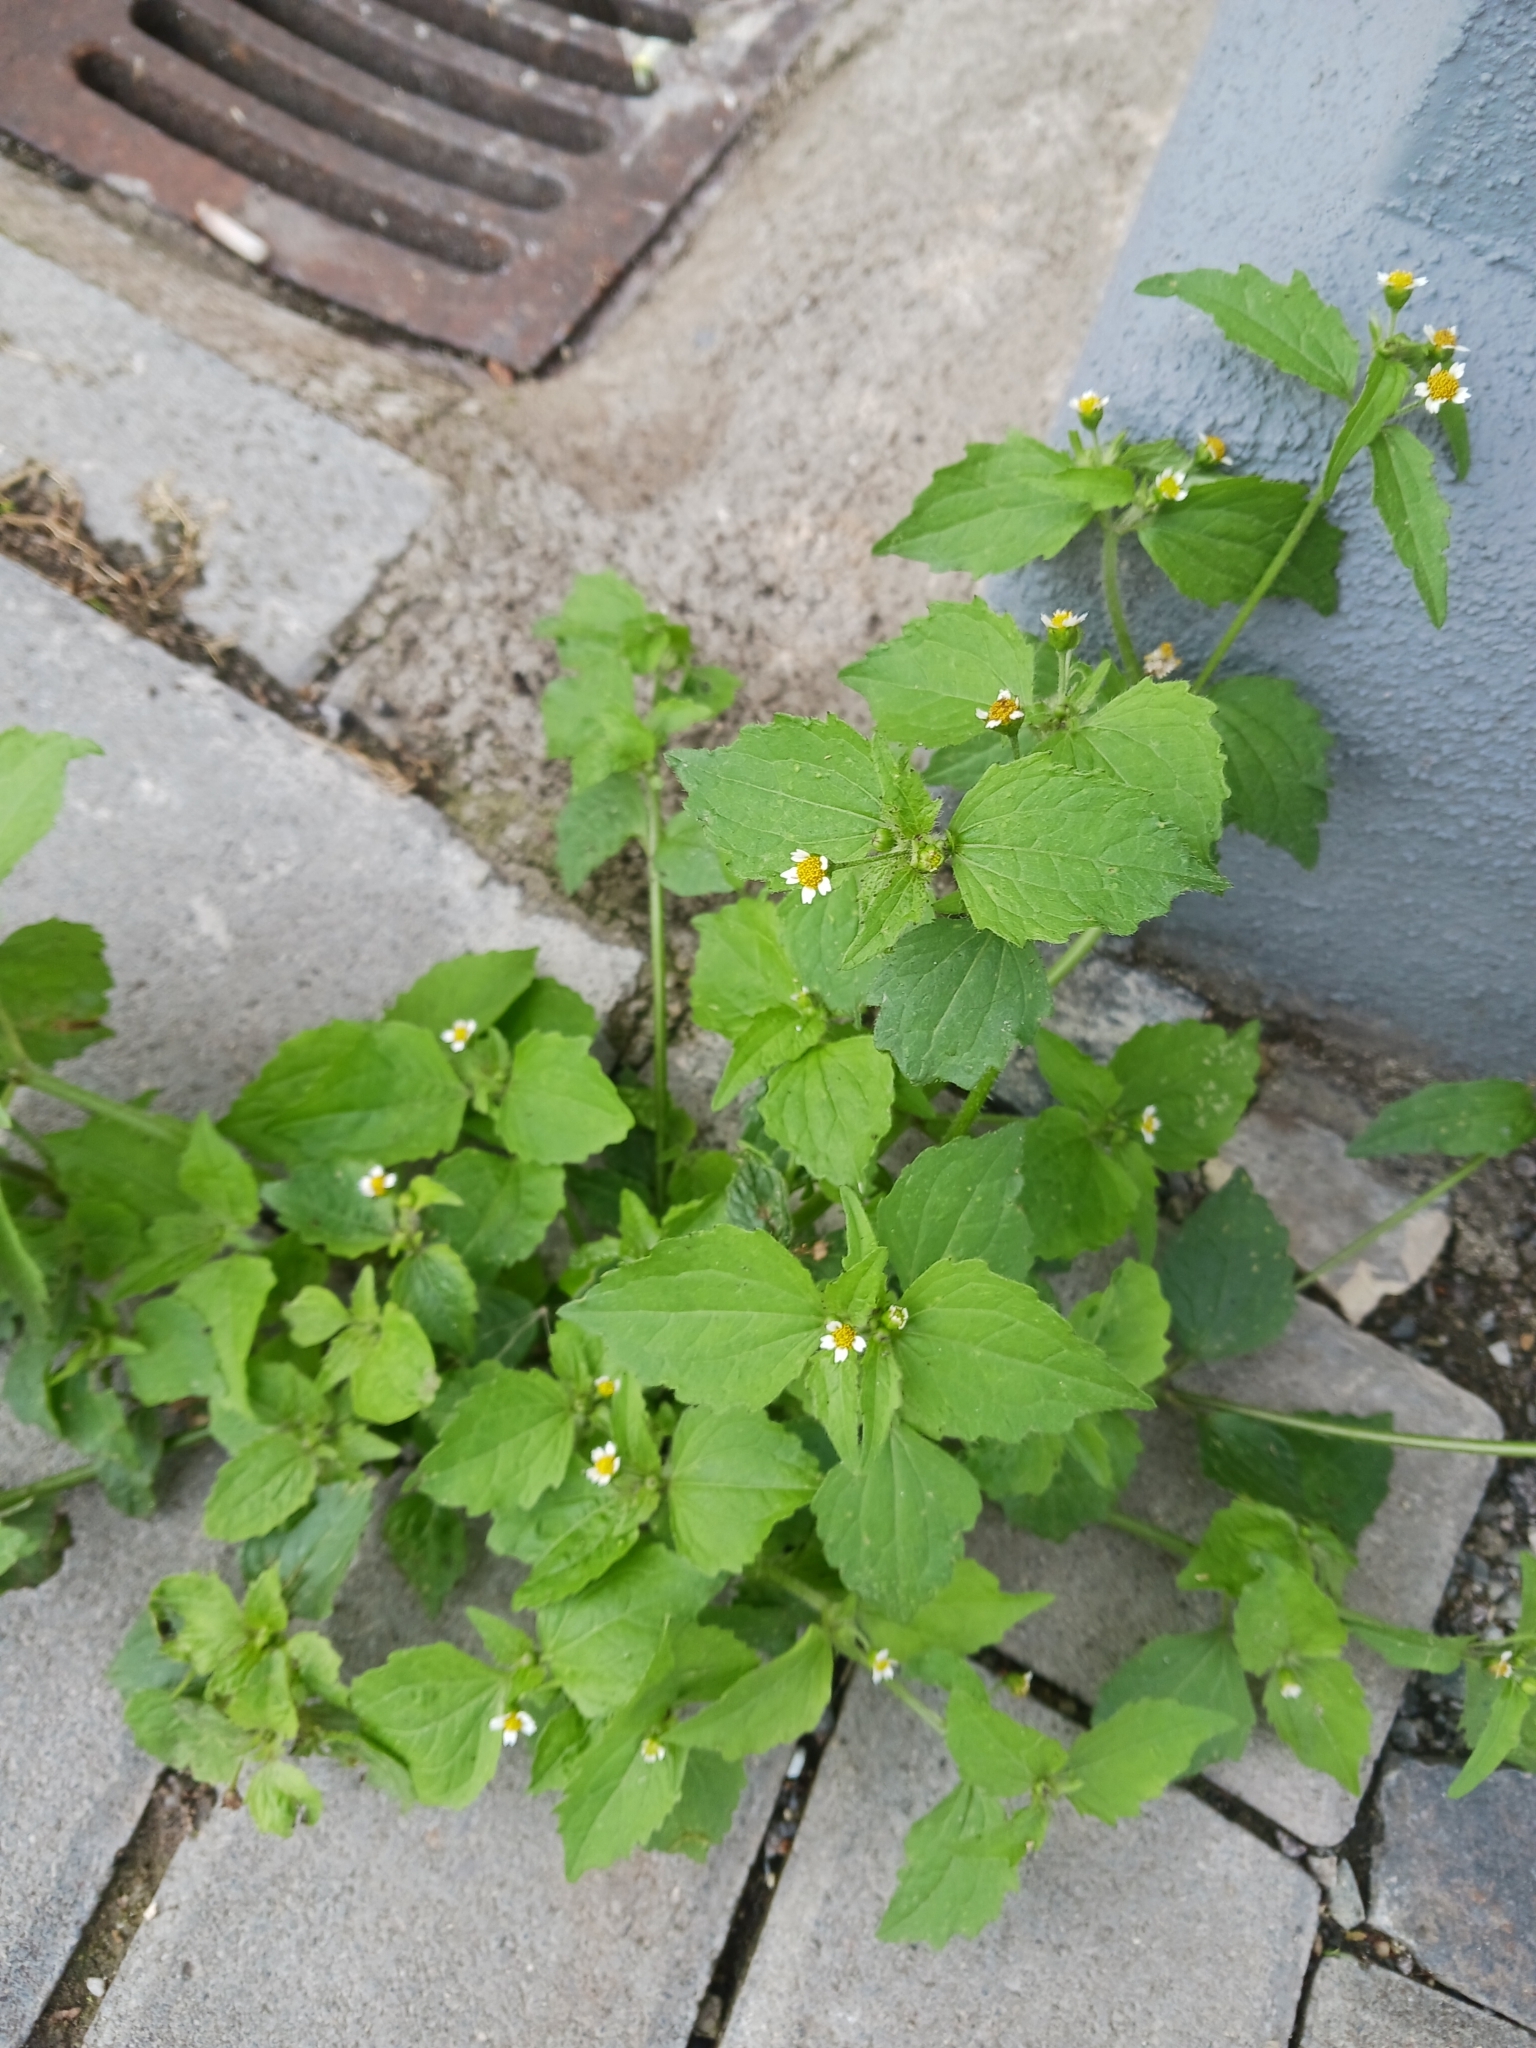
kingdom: Plantae
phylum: Tracheophyta
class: Magnoliopsida
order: Asterales
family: Asteraceae
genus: Galinsoga
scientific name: Galinsoga quadriradiata
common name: Shaggy soldier
